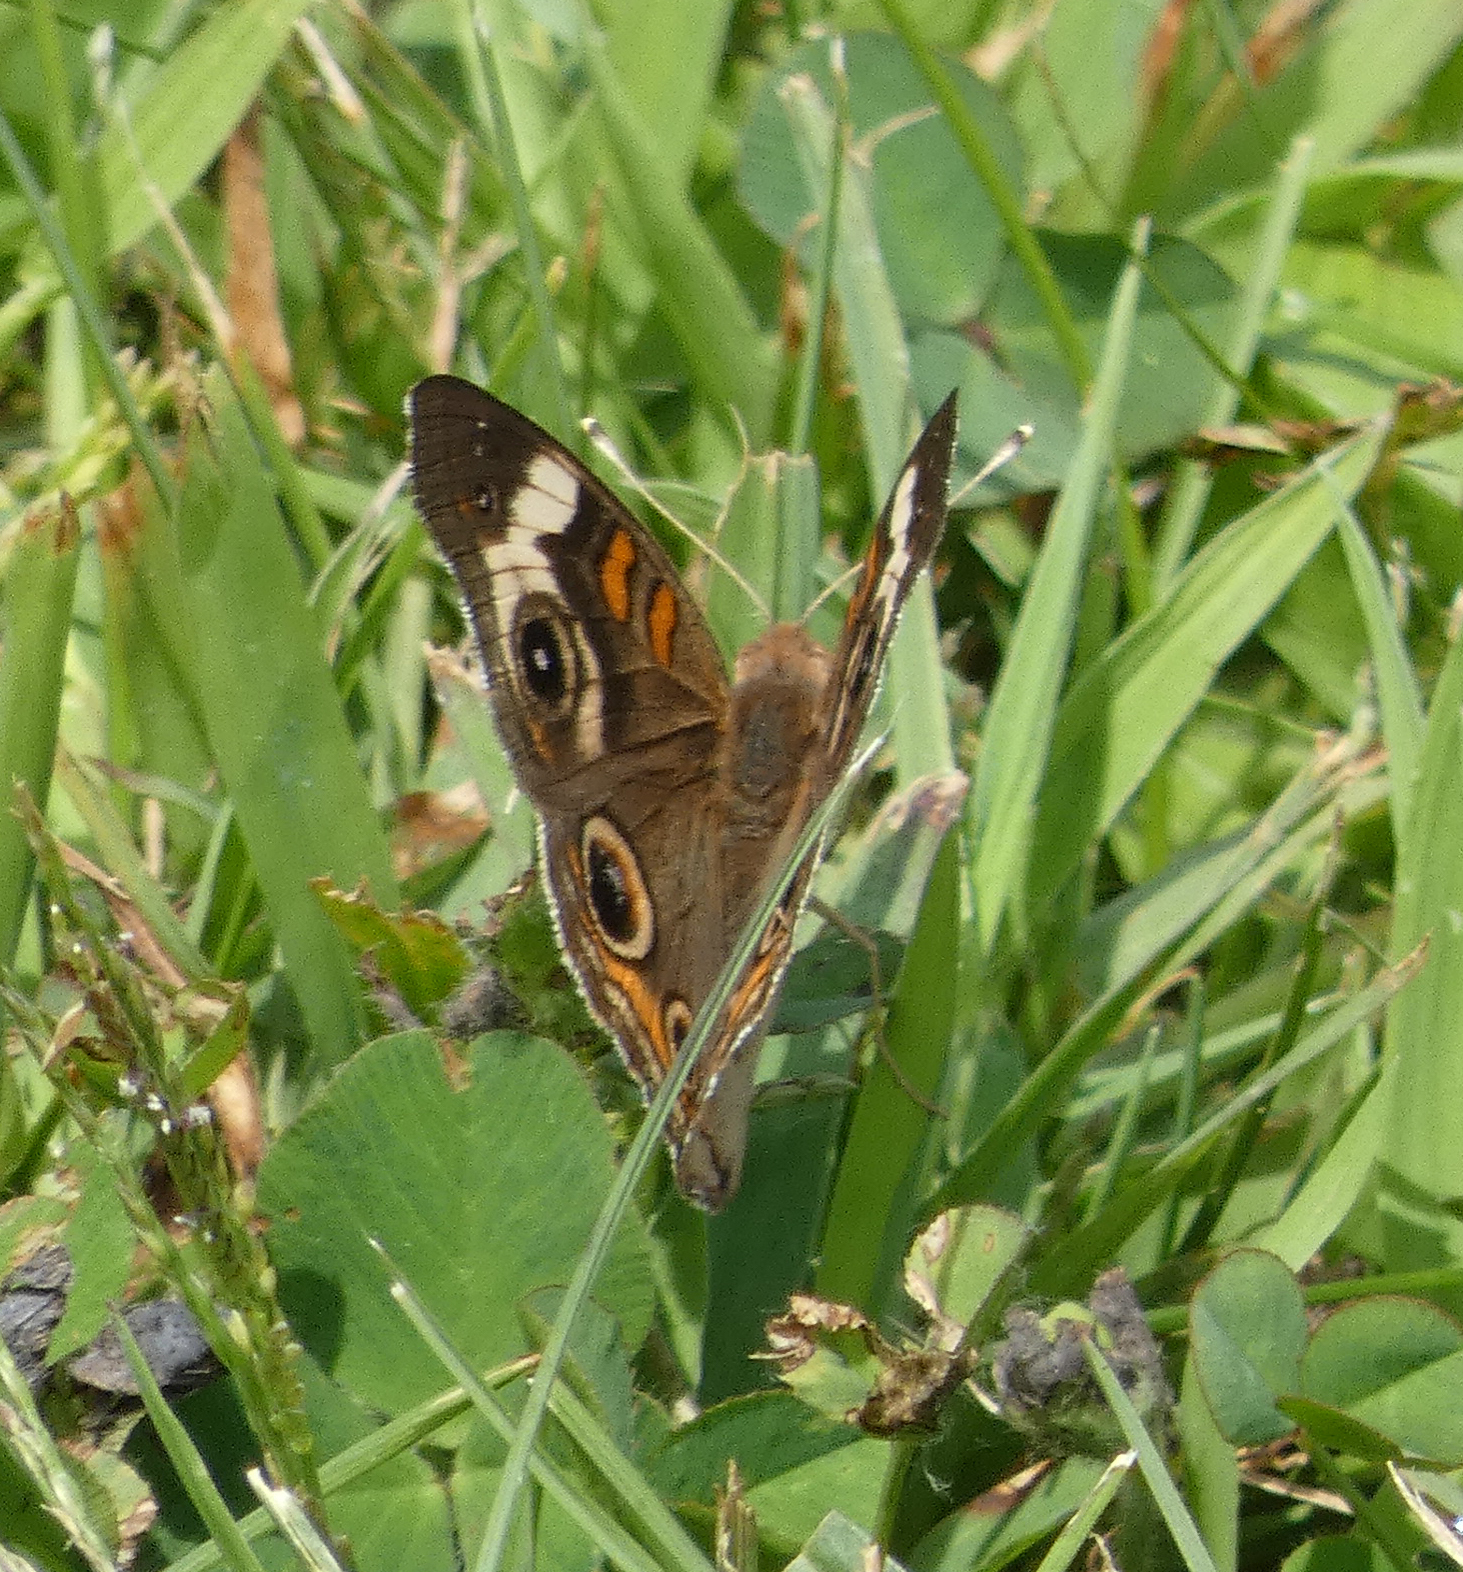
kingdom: Animalia
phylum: Arthropoda
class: Insecta
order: Lepidoptera
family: Nymphalidae
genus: Junonia
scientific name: Junonia coenia
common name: Common buckeye
